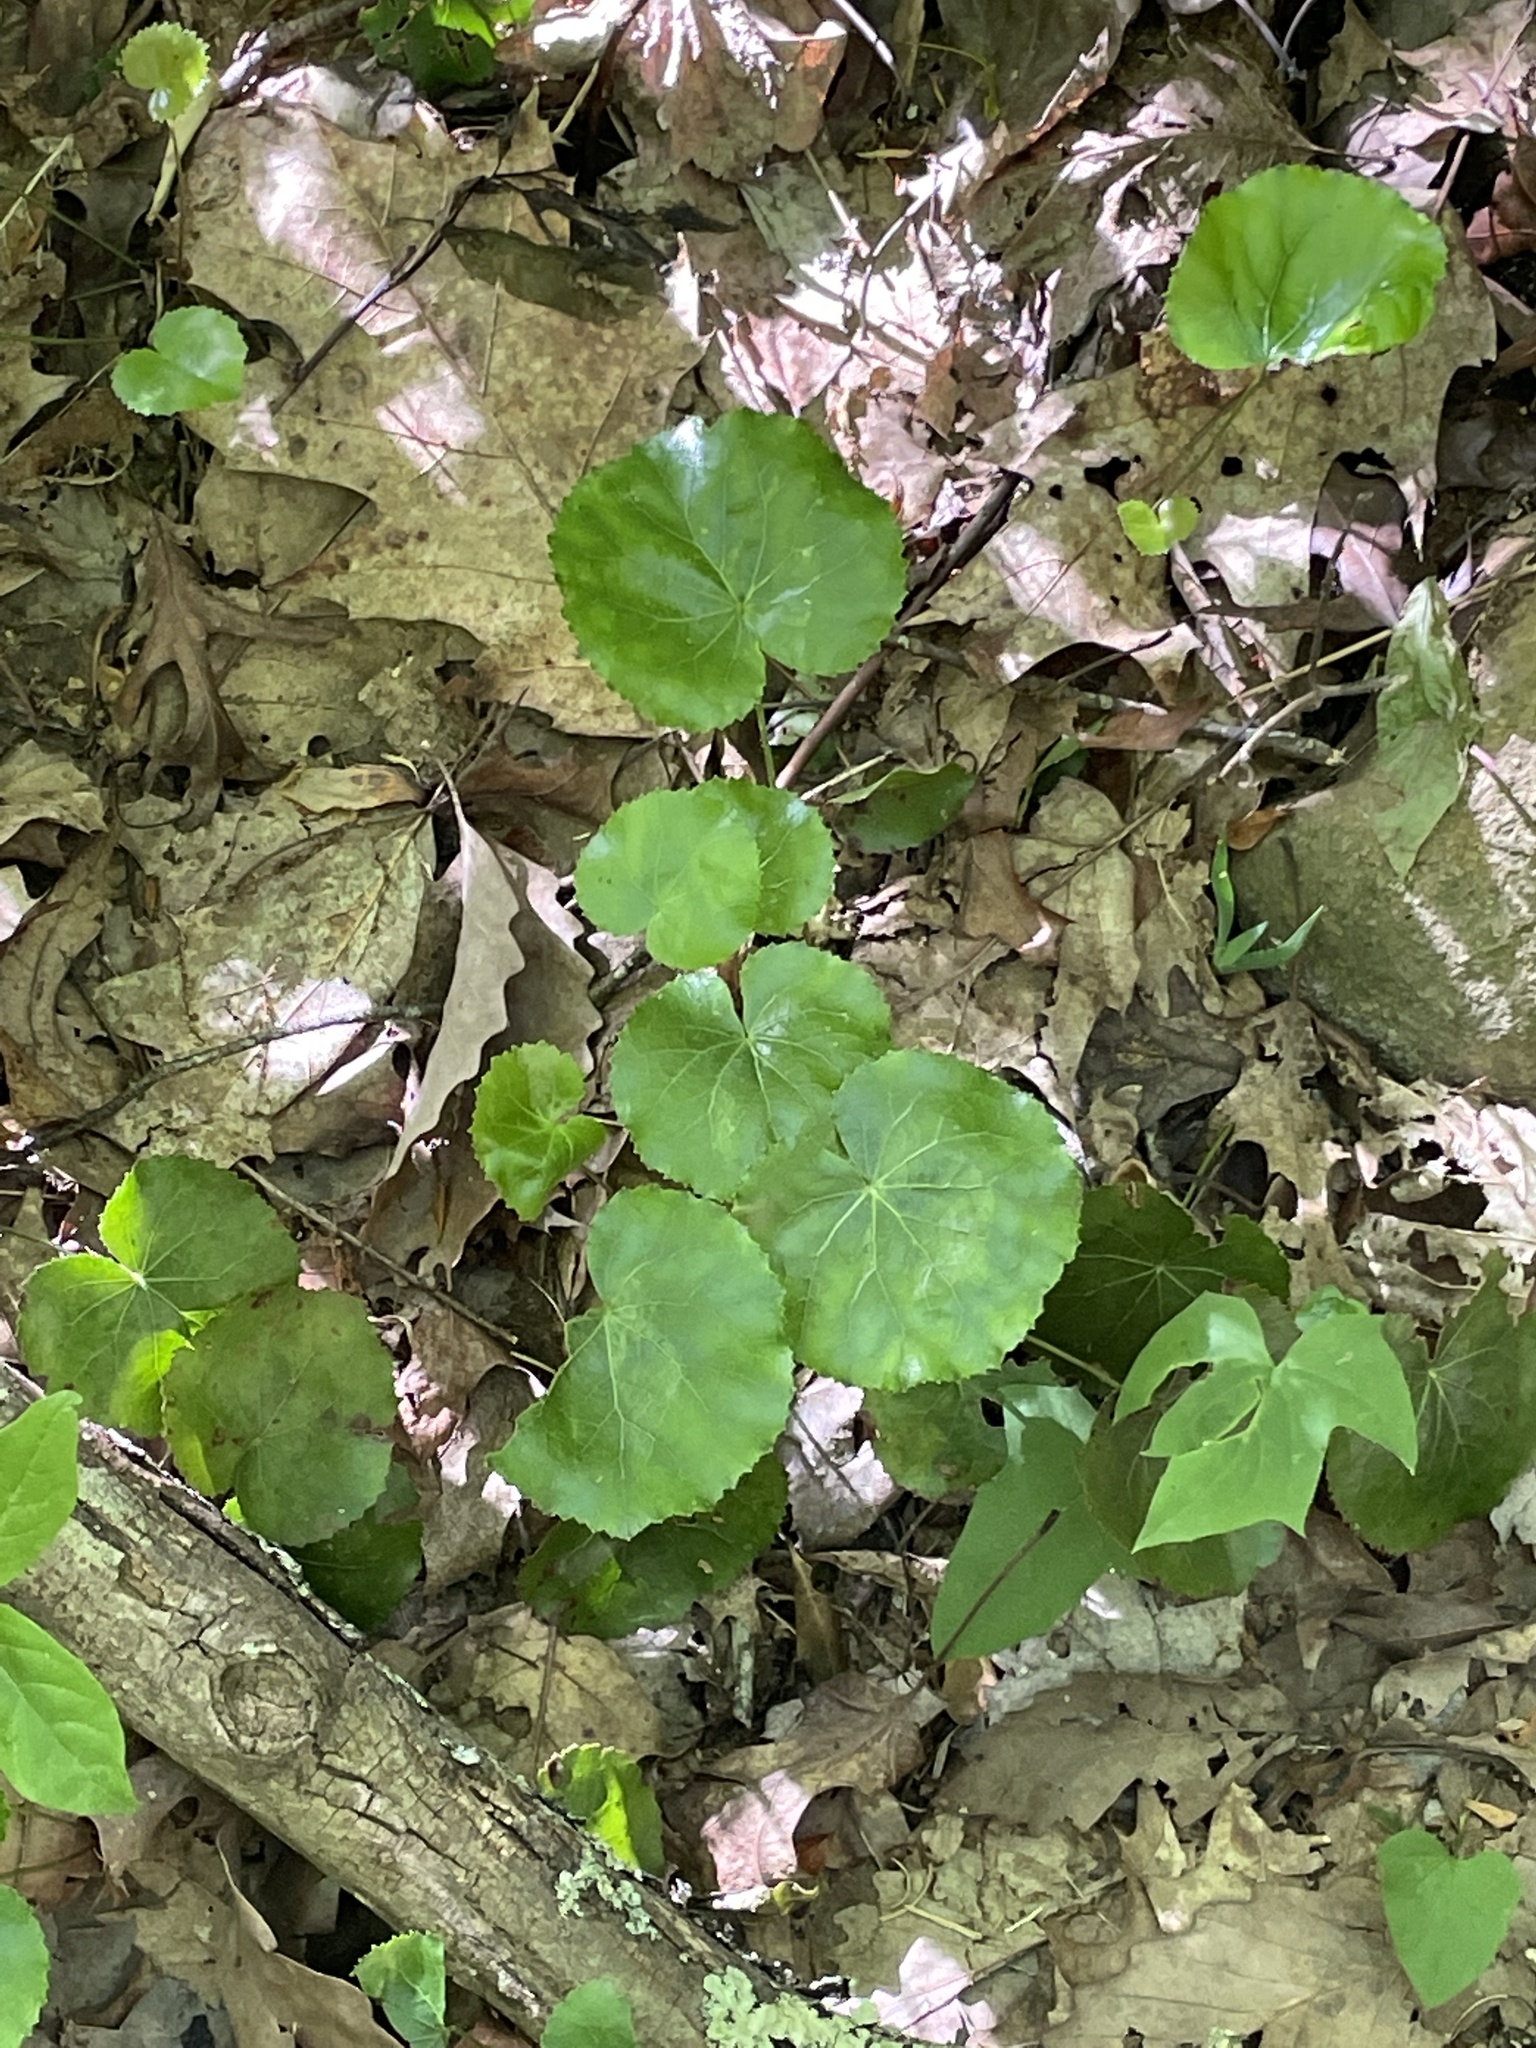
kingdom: Plantae
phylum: Tracheophyta
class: Magnoliopsida
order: Ericales
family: Diapensiaceae
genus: Galax
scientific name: Galax urceolata
